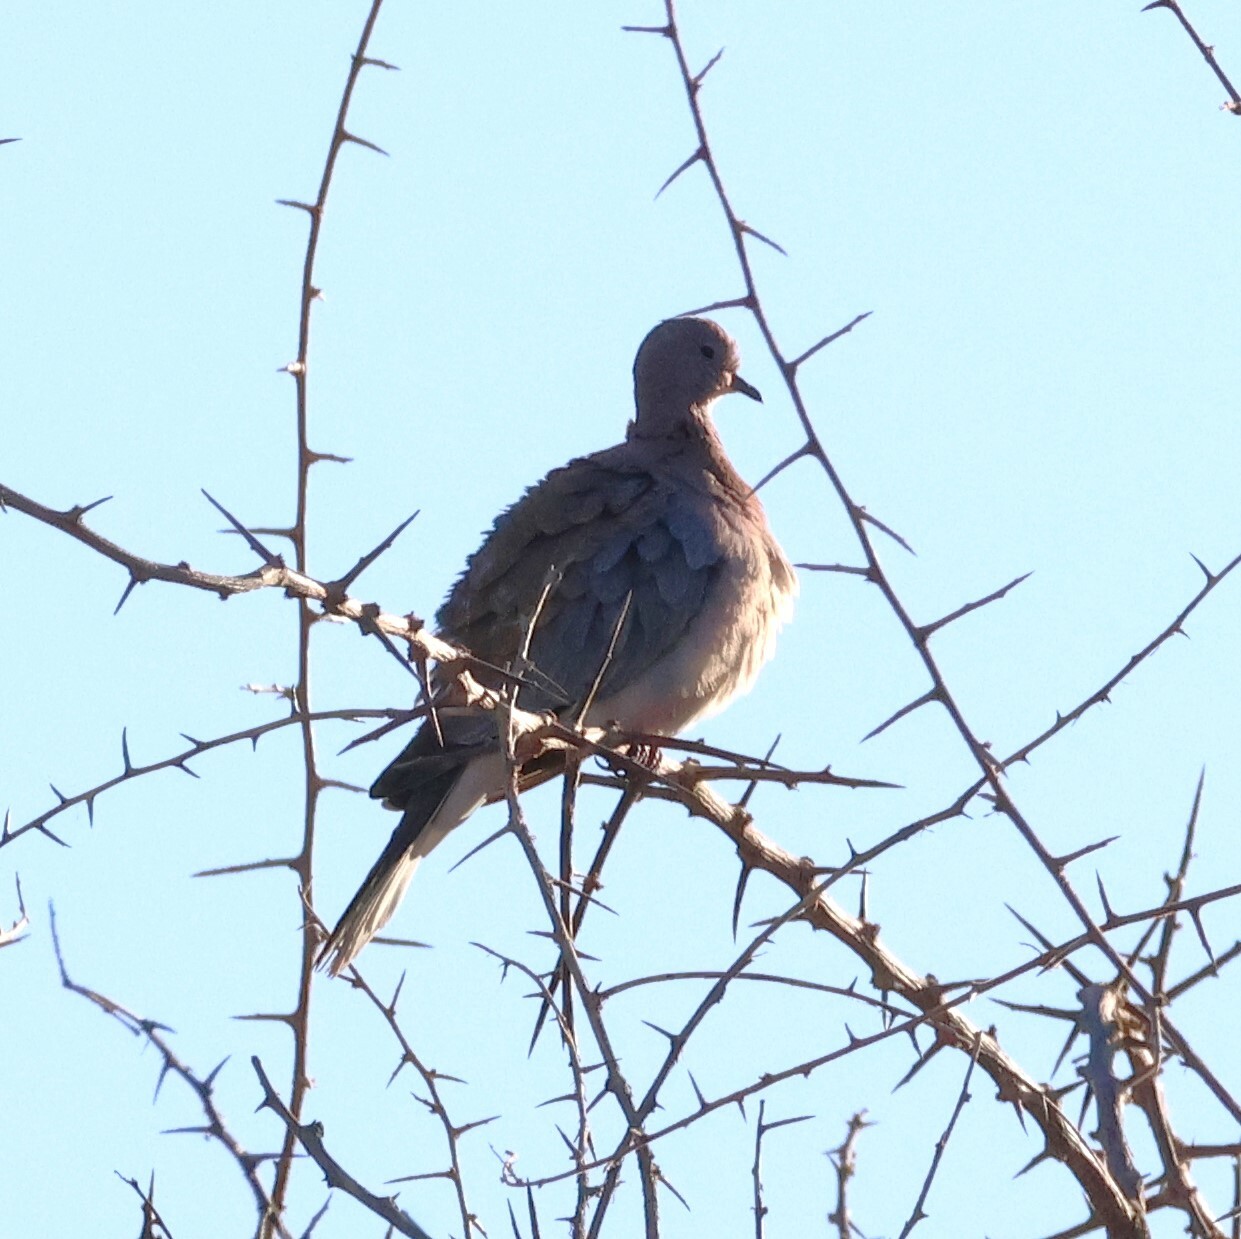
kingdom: Animalia
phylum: Chordata
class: Aves
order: Columbiformes
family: Columbidae
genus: Spilopelia
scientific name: Spilopelia senegalensis
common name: Laughing dove
